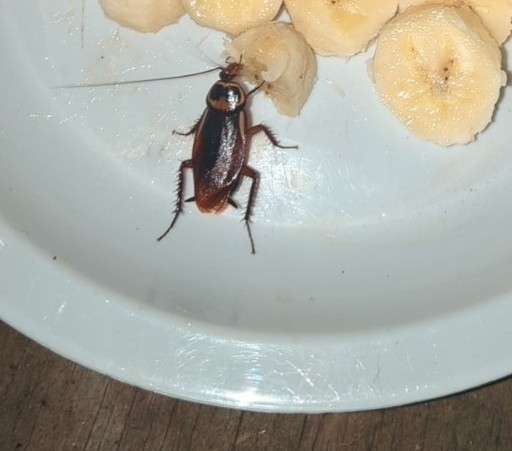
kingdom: Animalia
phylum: Arthropoda
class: Insecta
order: Blattodea
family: Blattidae
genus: Periplaneta
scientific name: Periplaneta australasiae
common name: Australian cockroach
